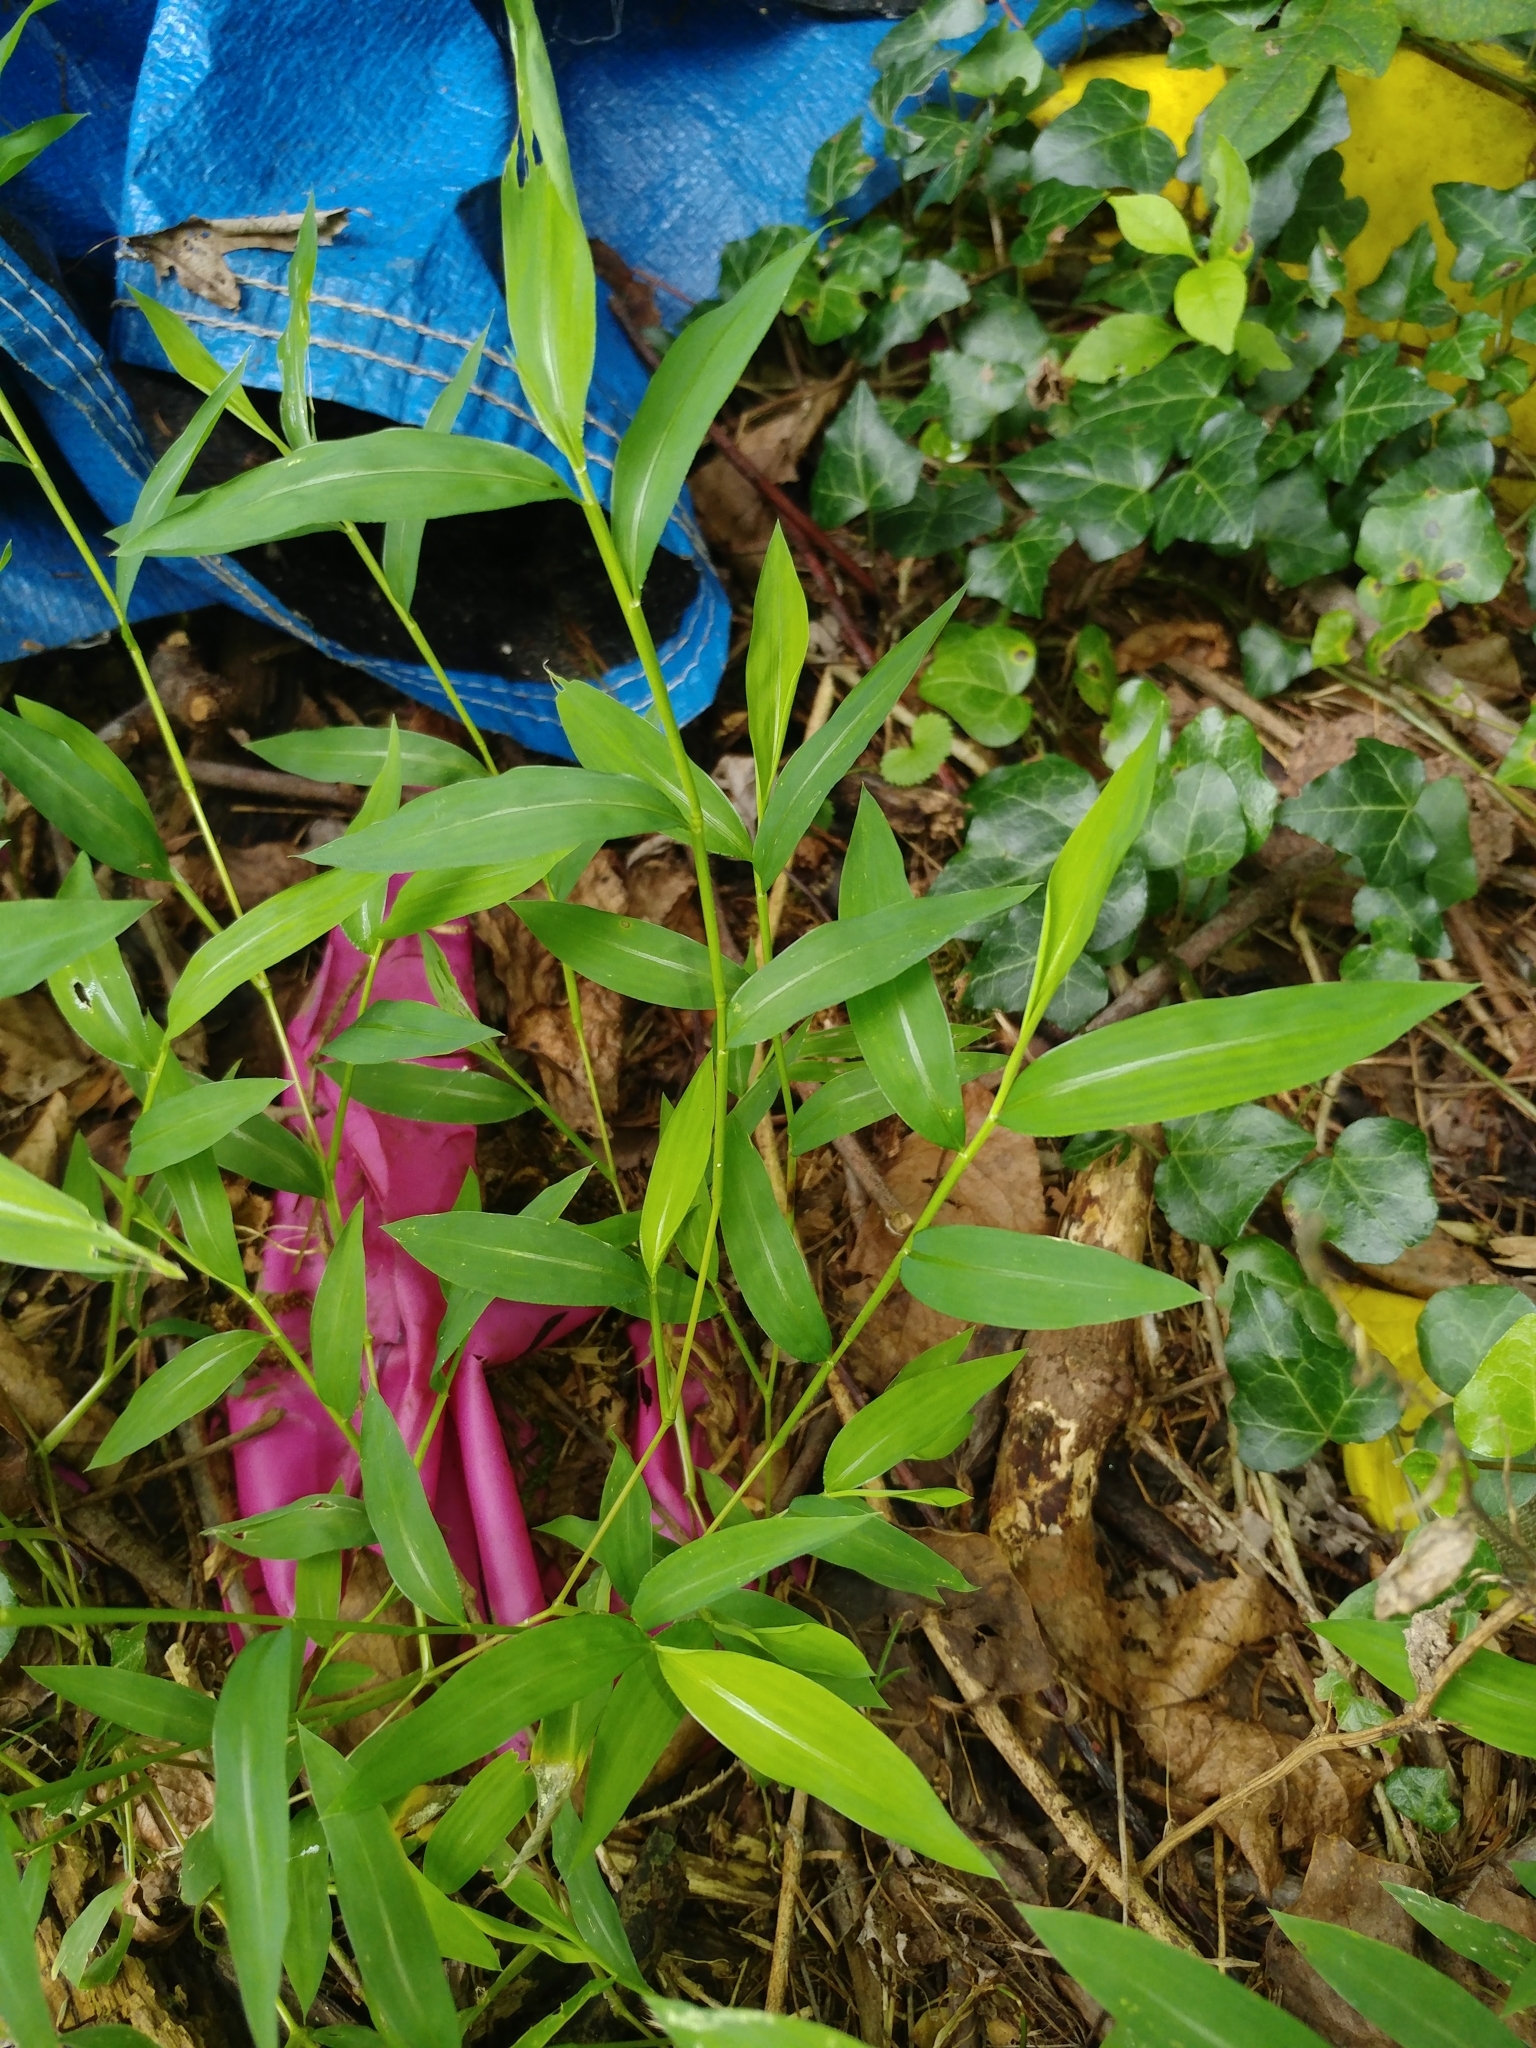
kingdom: Plantae
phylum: Tracheophyta
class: Liliopsida
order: Poales
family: Poaceae
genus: Microstegium
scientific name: Microstegium vimineum
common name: Japanese stiltgrass
